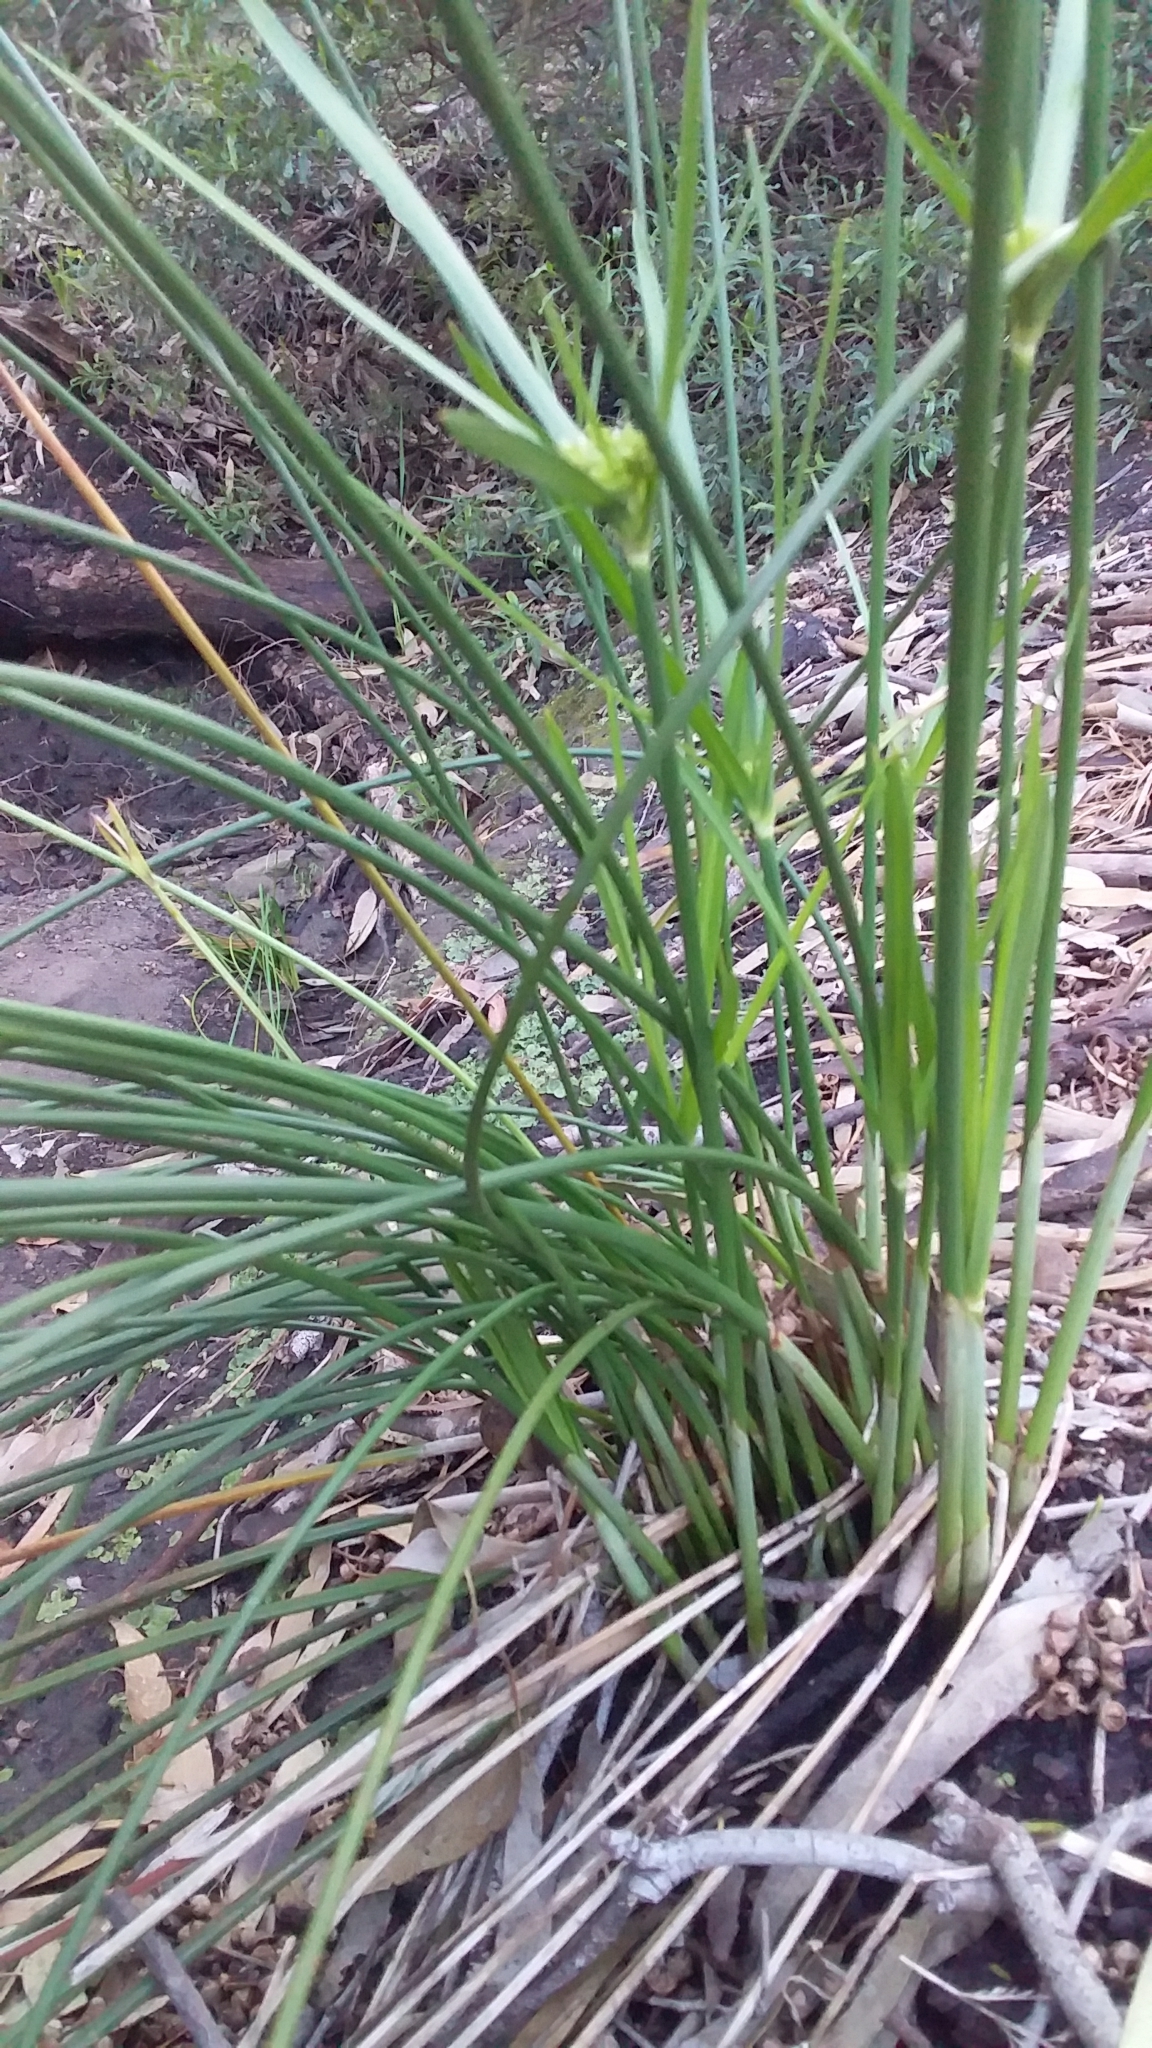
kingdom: Plantae
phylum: Tracheophyta
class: Liliopsida
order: Poales
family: Cyperaceae
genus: Cyperus
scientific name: Cyperus vaginatus
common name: Stiff-leaved flat-sedge
